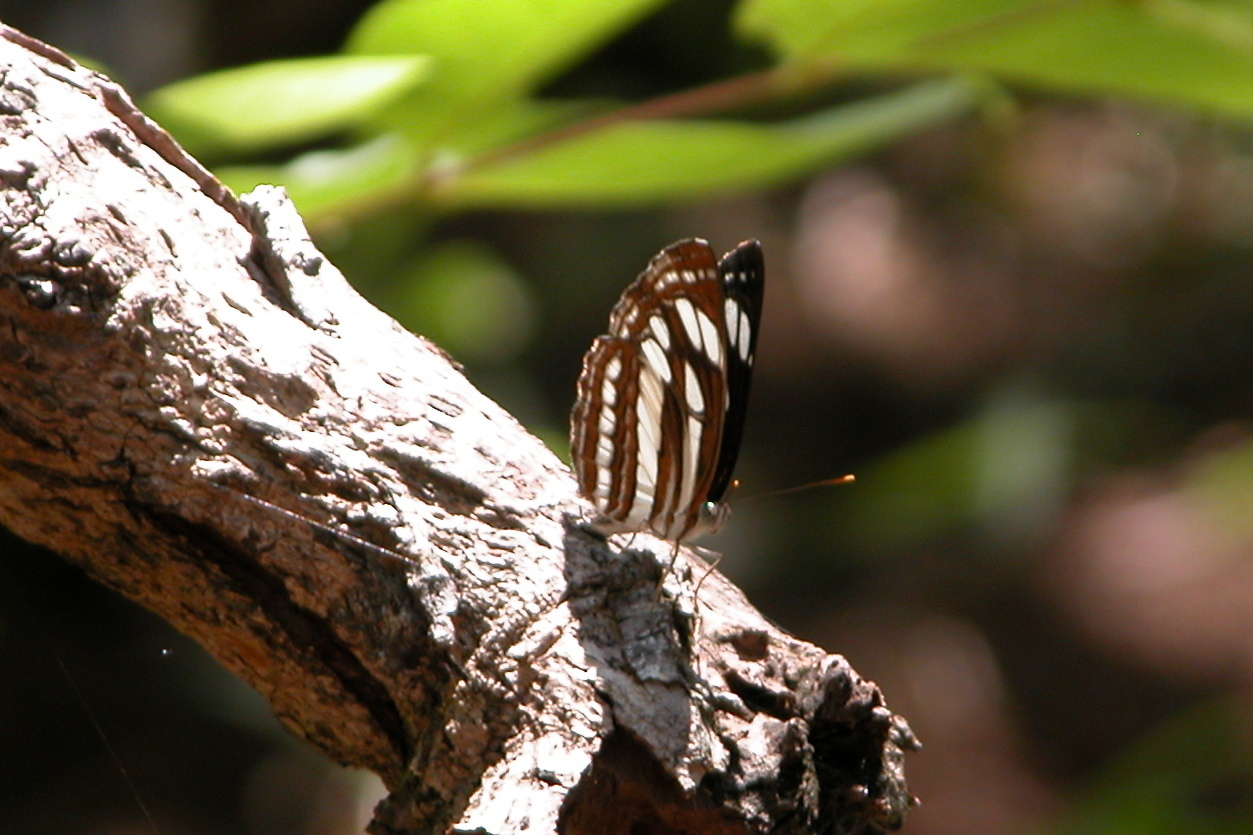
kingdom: Animalia
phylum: Arthropoda
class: Insecta
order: Lepidoptera
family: Nymphalidae
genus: Neptis
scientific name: Neptis hylas
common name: Common sailer
